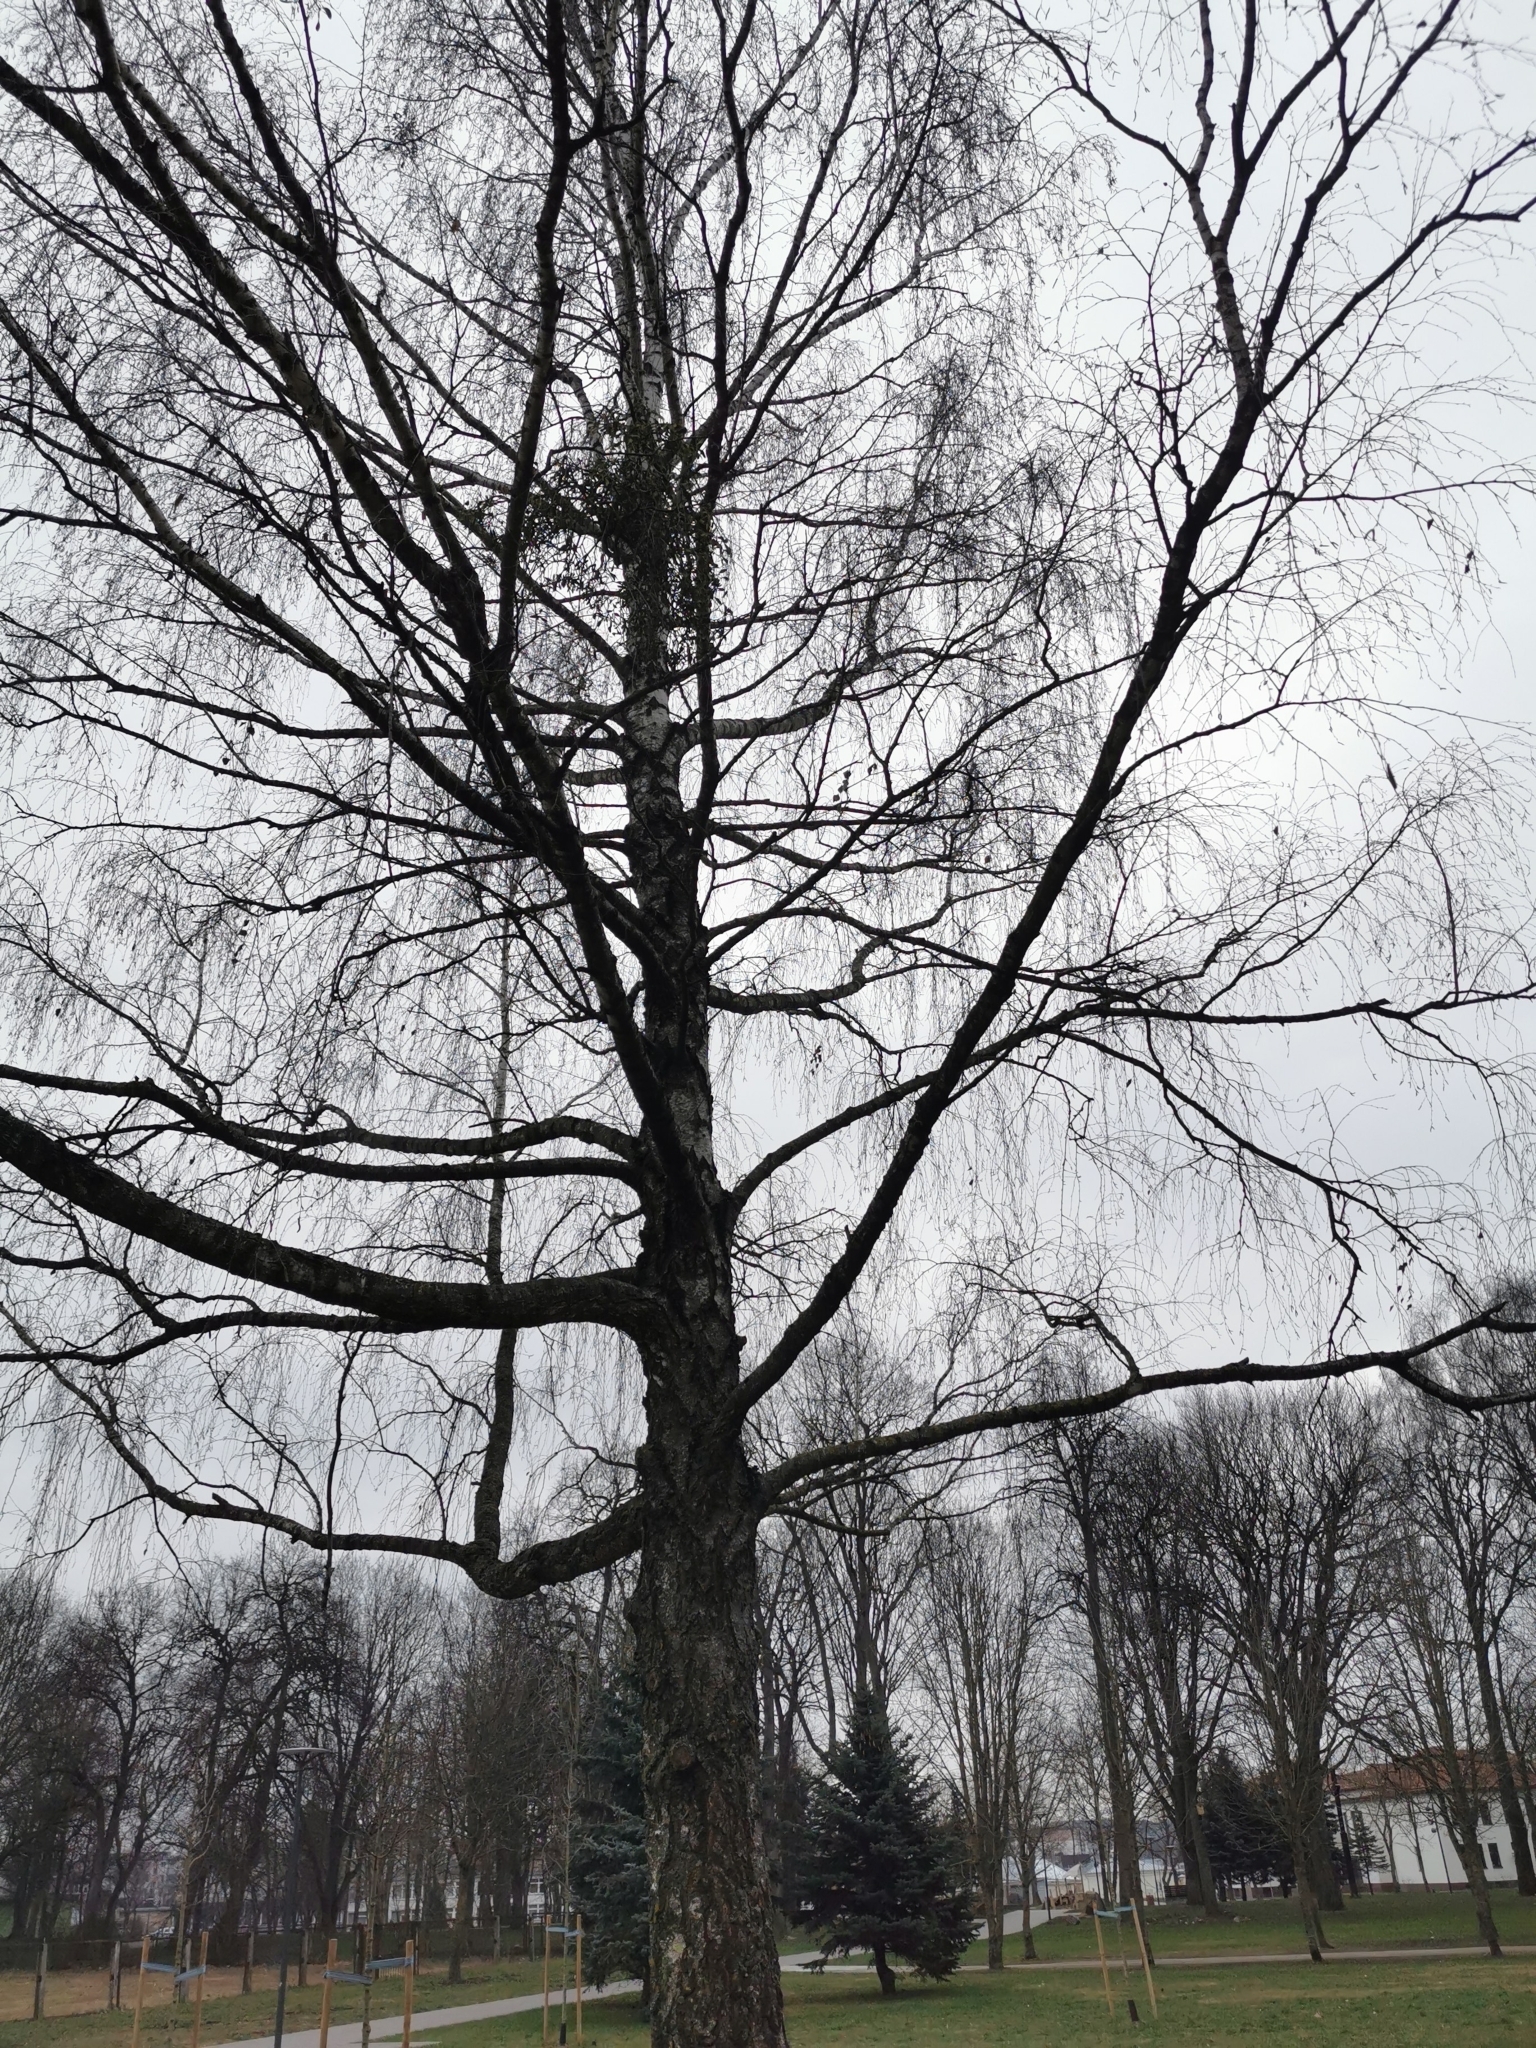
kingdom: Plantae
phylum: Tracheophyta
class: Magnoliopsida
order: Santalales
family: Viscaceae
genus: Viscum
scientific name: Viscum album
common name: Mistletoe
